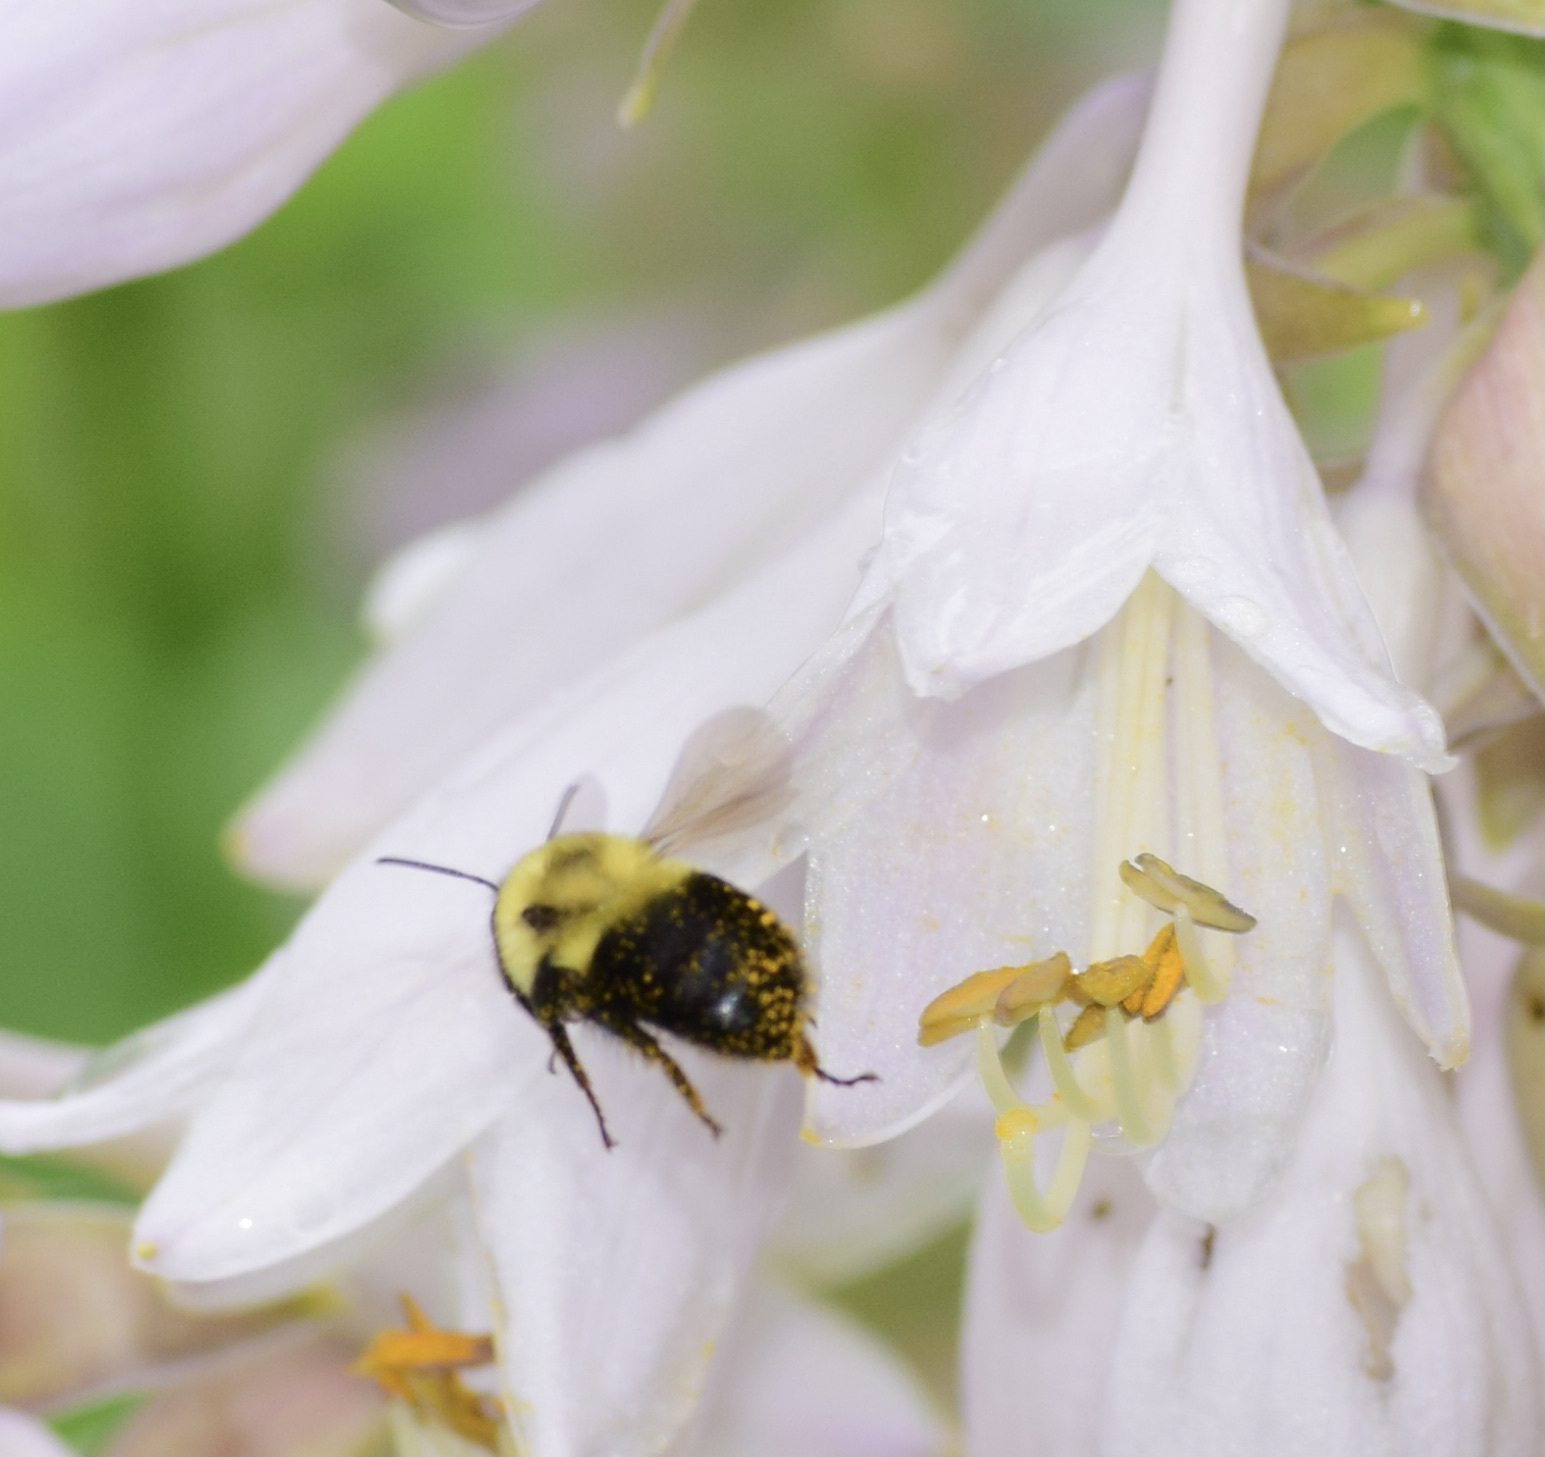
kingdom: Animalia
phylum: Arthropoda
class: Insecta
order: Hymenoptera
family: Apidae
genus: Bombus
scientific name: Bombus bimaculatus
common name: Two-spotted bumble bee
